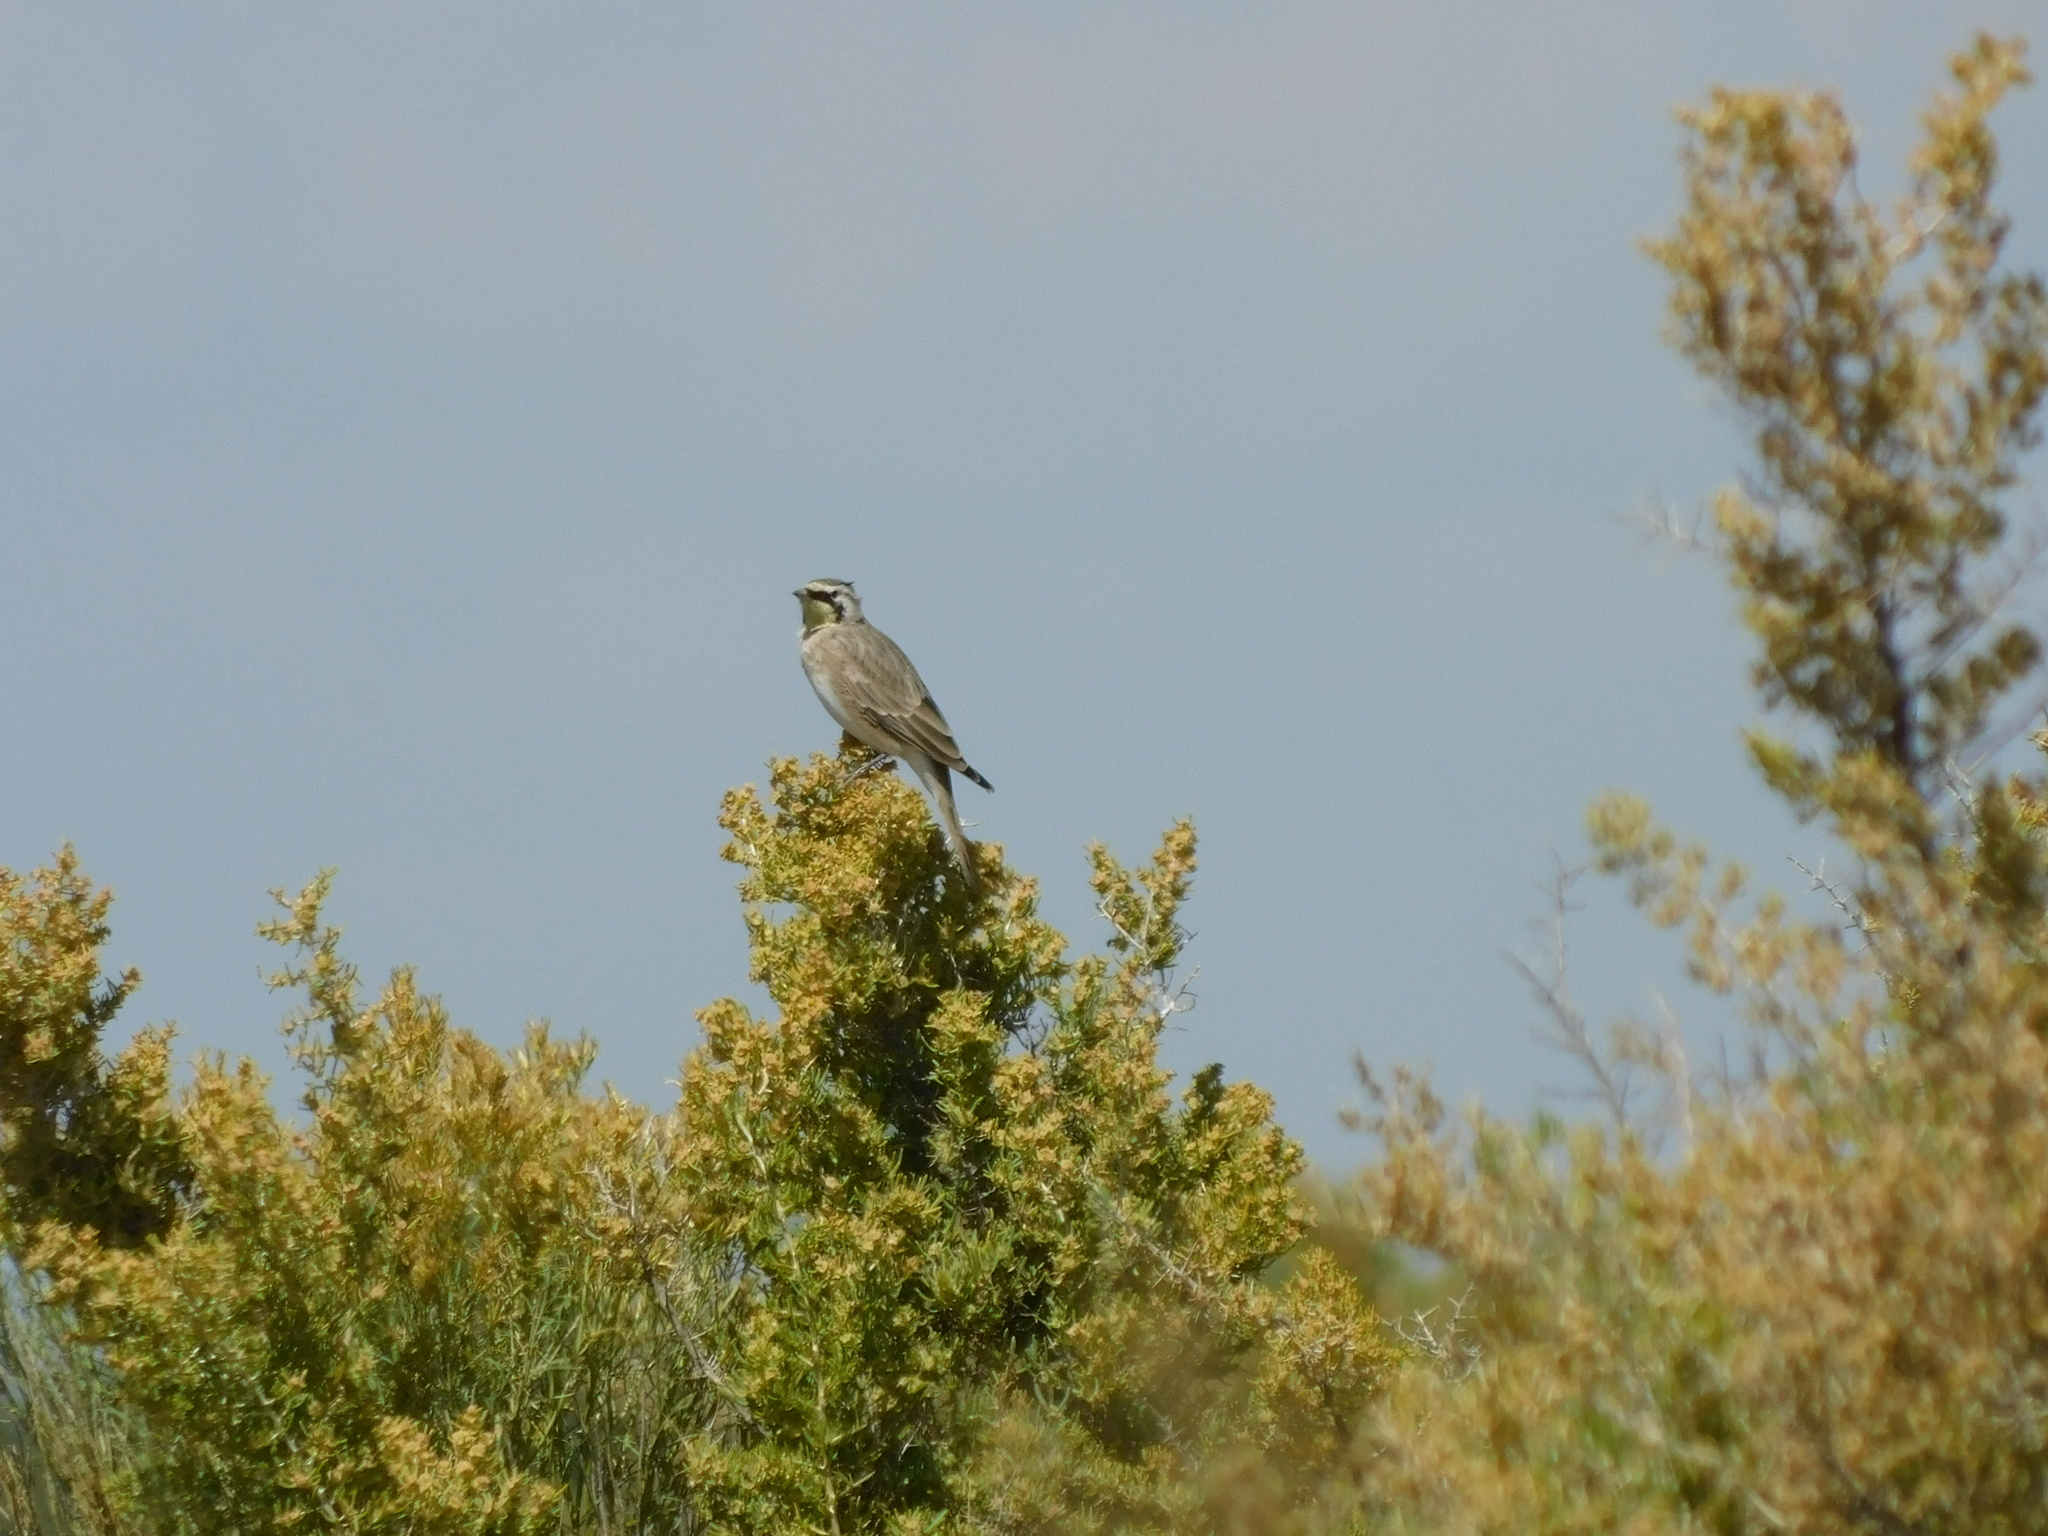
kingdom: Animalia
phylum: Chordata
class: Aves
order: Passeriformes
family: Alaudidae
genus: Eremophila
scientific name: Eremophila alpestris
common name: Horned lark
